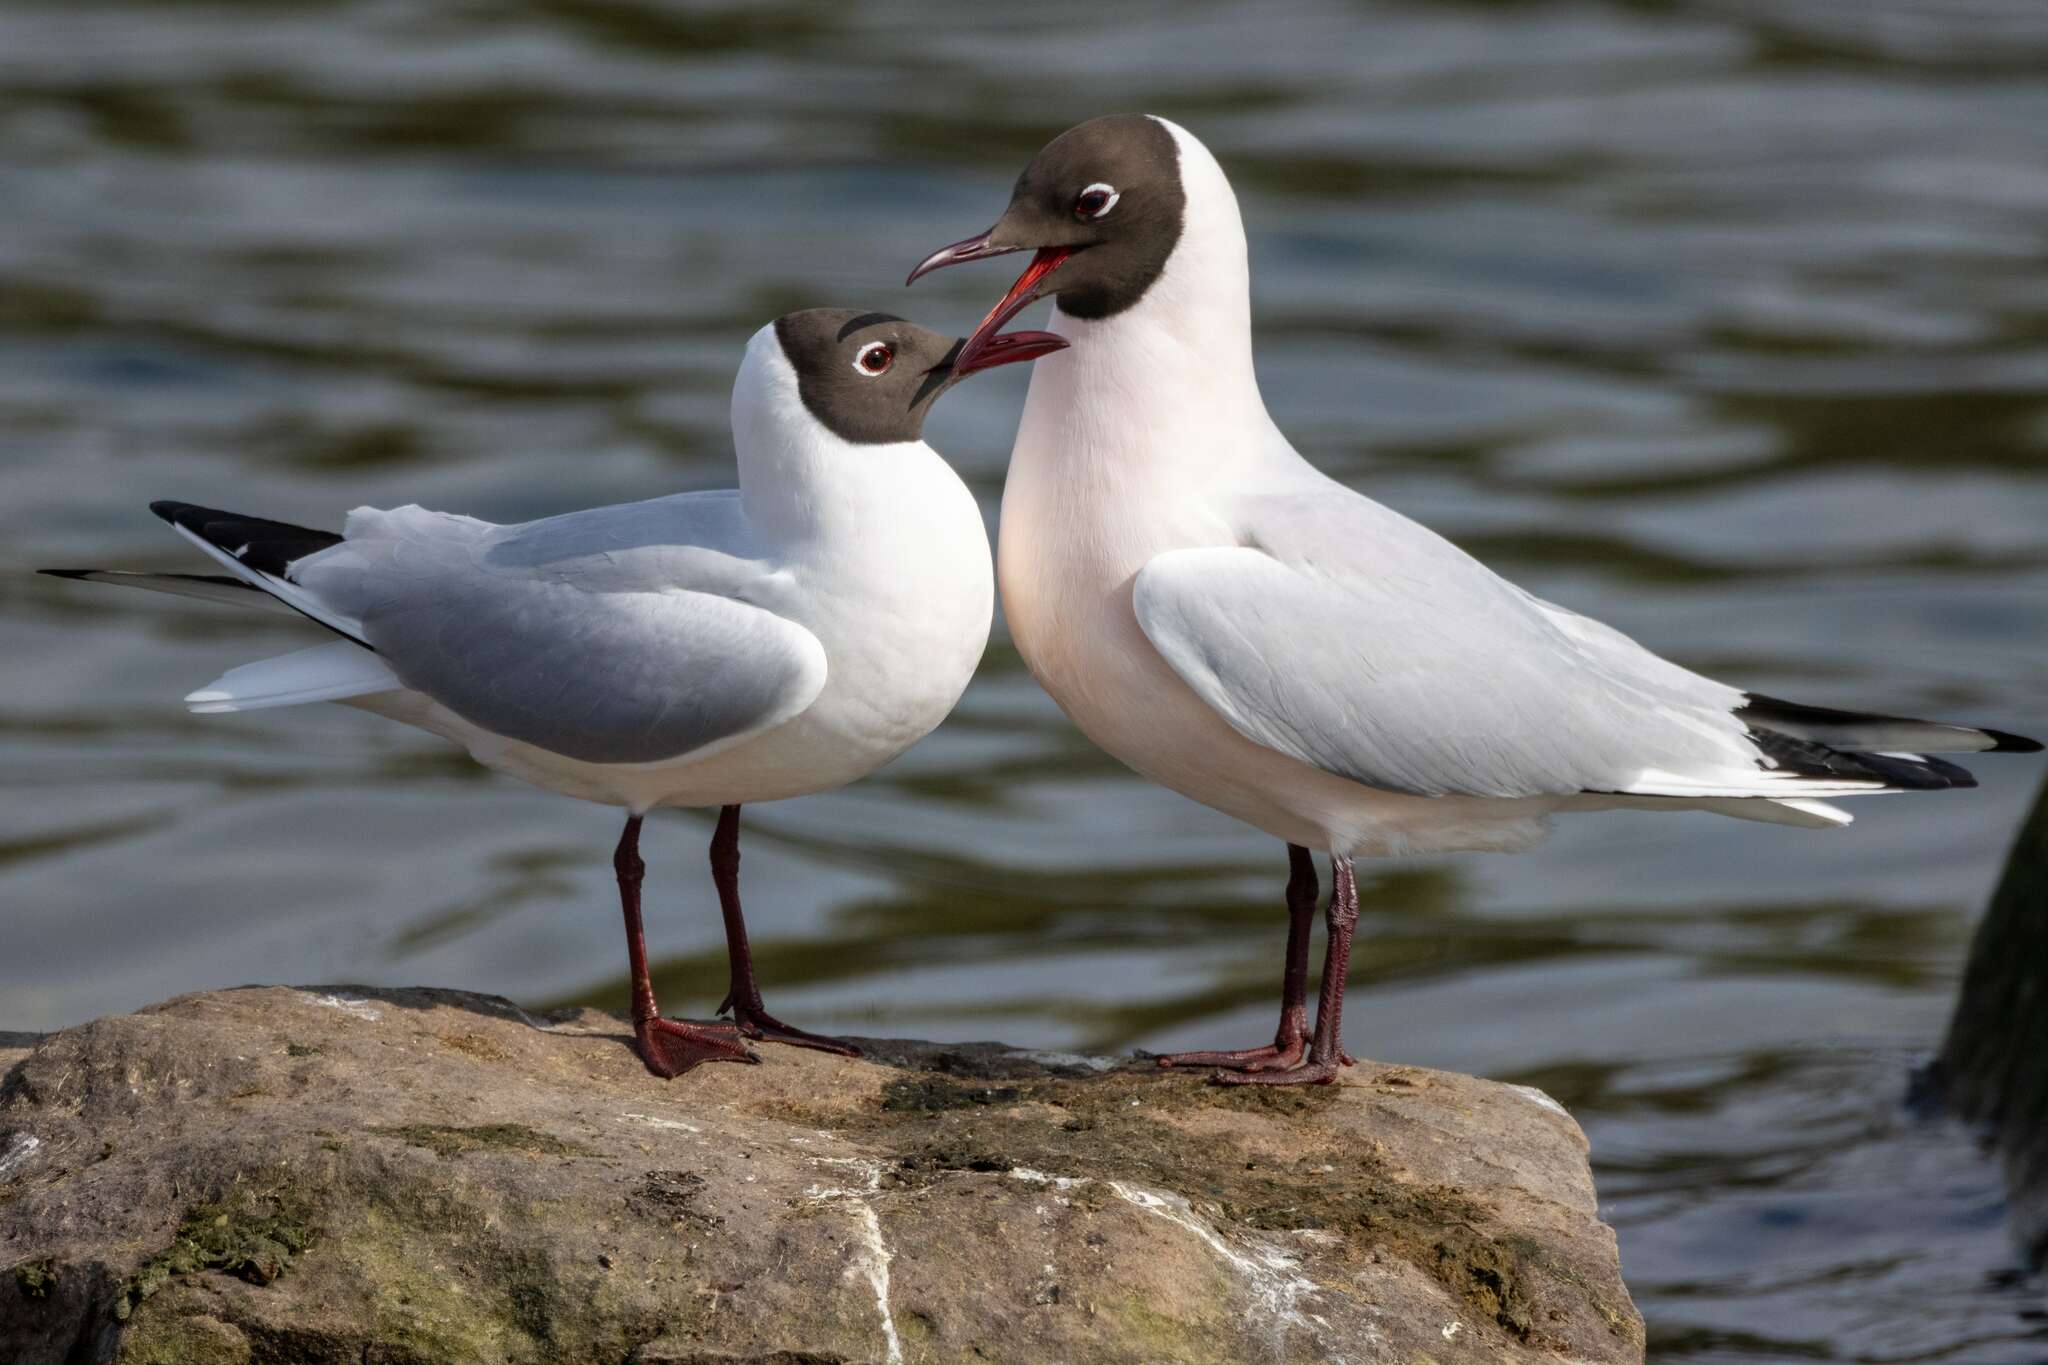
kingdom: Animalia
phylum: Chordata
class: Aves
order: Charadriiformes
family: Laridae
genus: Chroicocephalus
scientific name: Chroicocephalus ridibundus
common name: Black-headed gull
